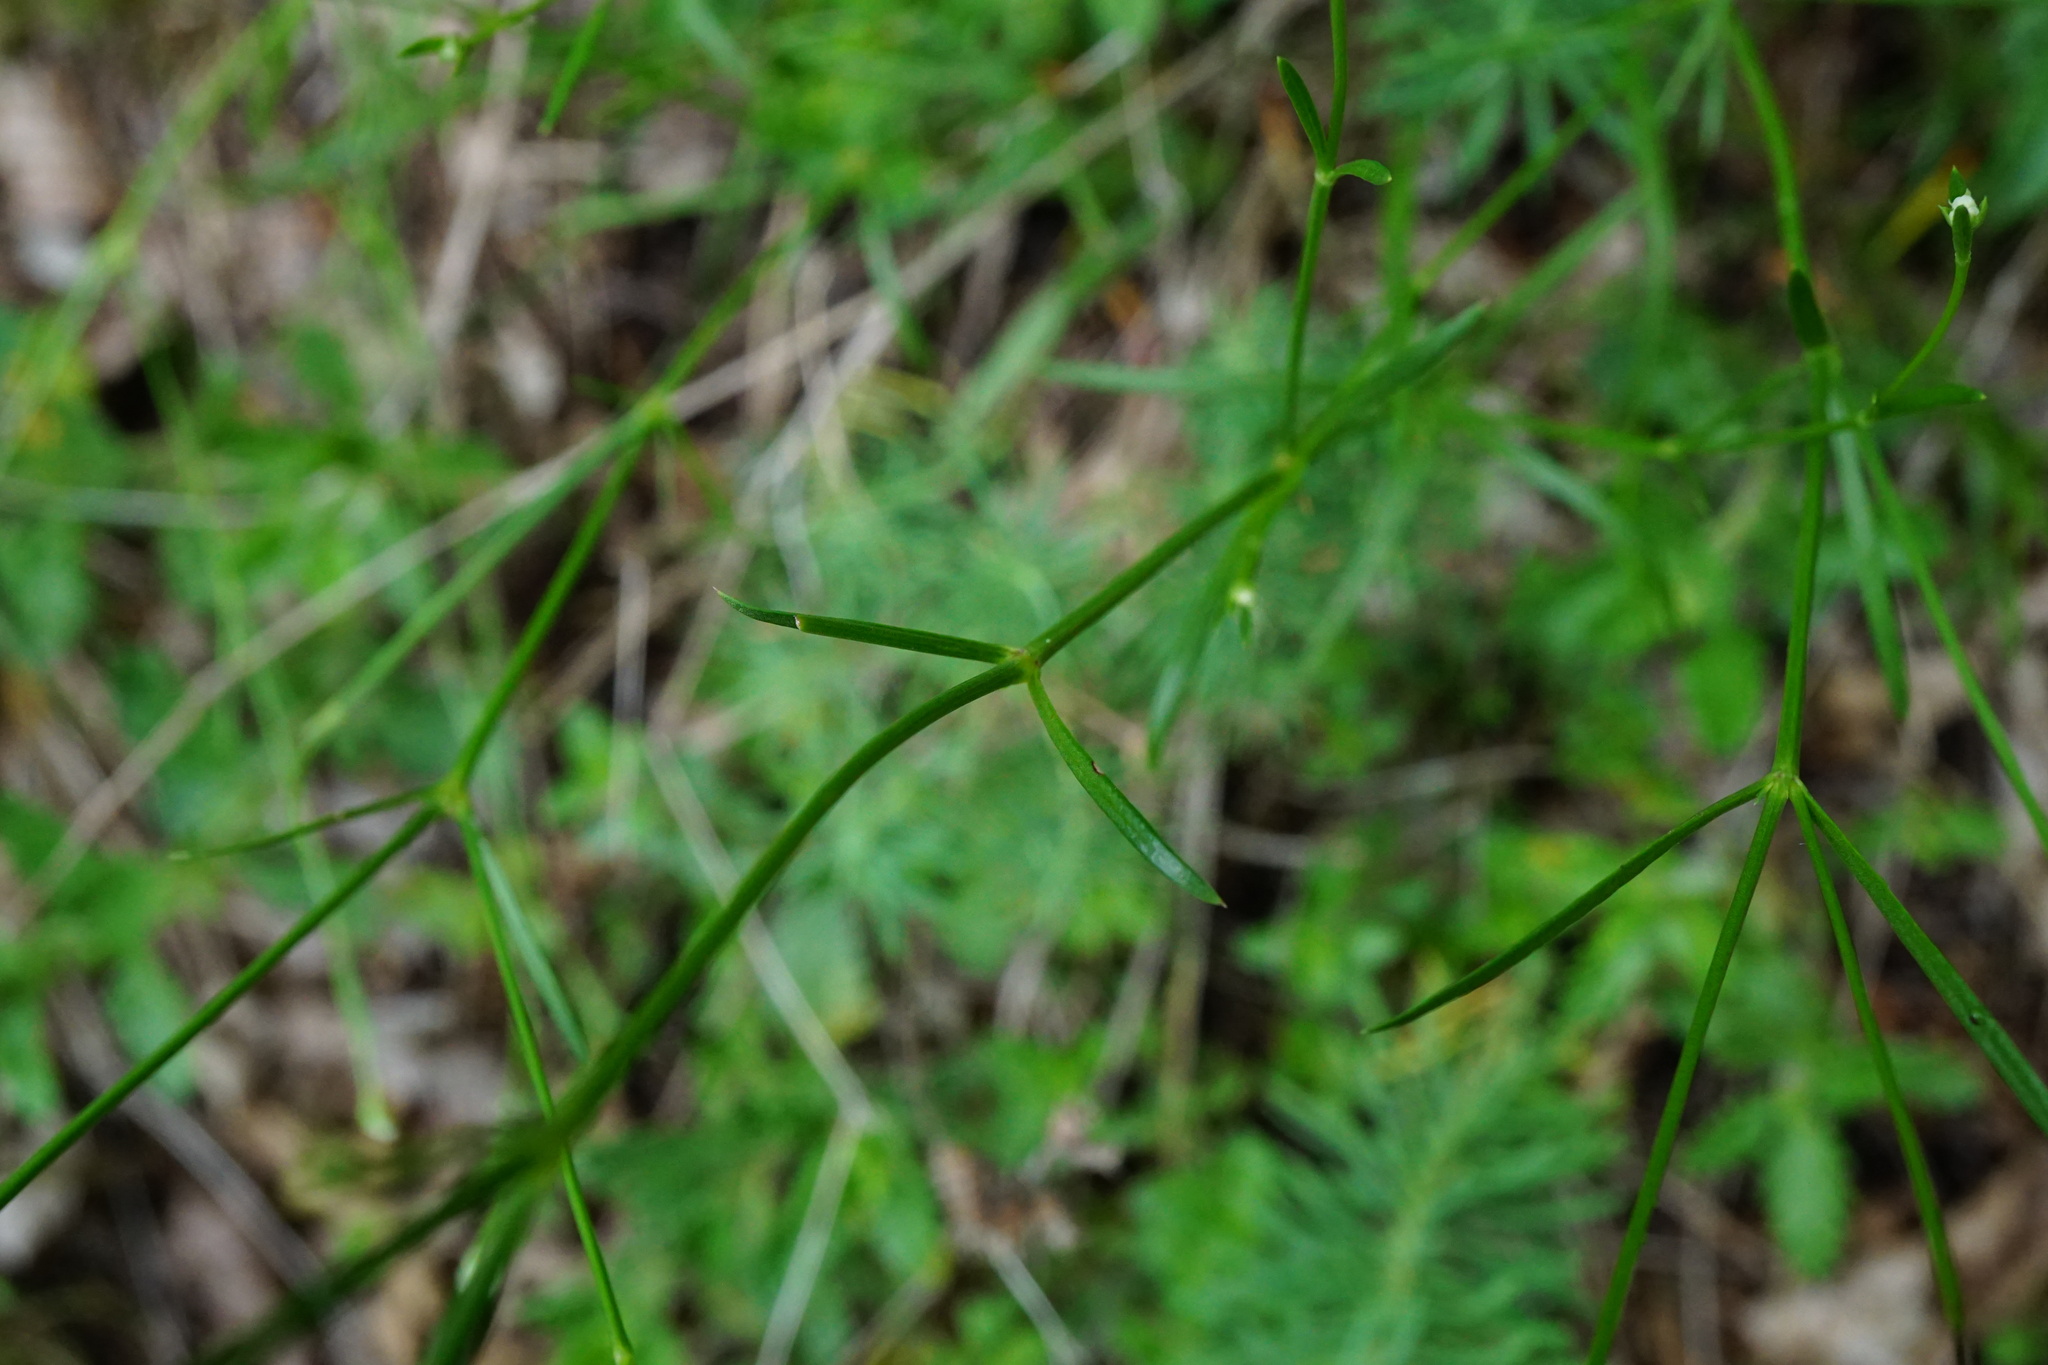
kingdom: Plantae
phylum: Tracheophyta
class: Magnoliopsida
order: Gentianales
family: Rubiaceae
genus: Cynanchica
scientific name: Cynanchica pyrenaica
